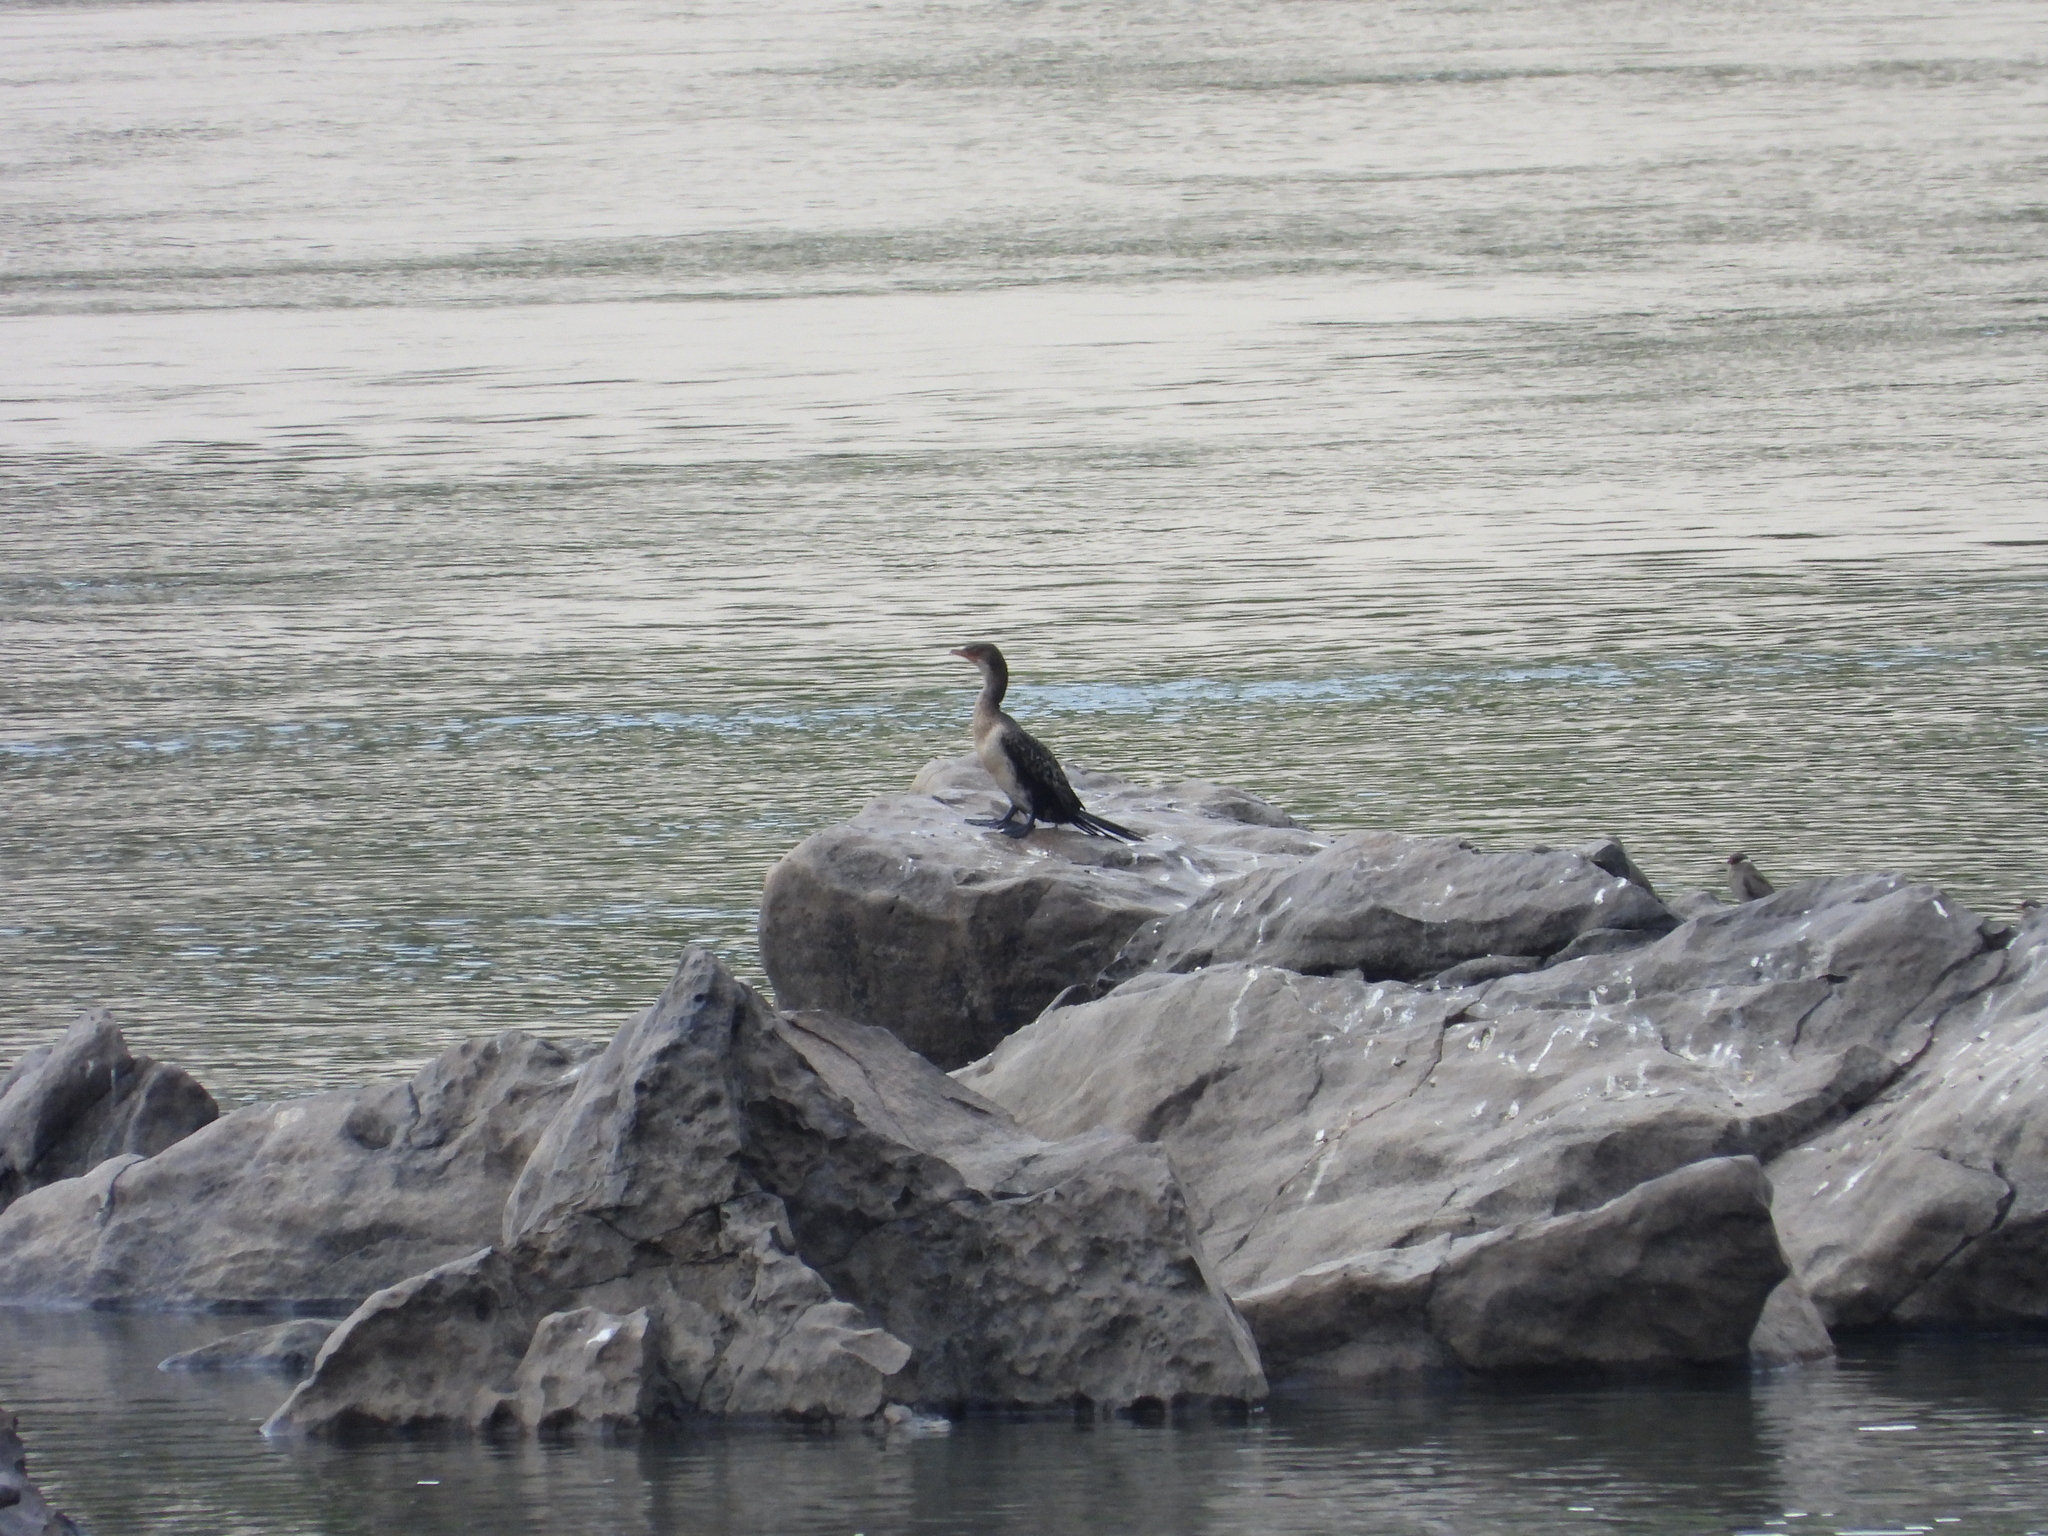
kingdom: Animalia
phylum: Chordata
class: Aves
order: Suliformes
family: Phalacrocoracidae
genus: Microcarbo
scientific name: Microcarbo africanus
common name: Long-tailed cormorant
